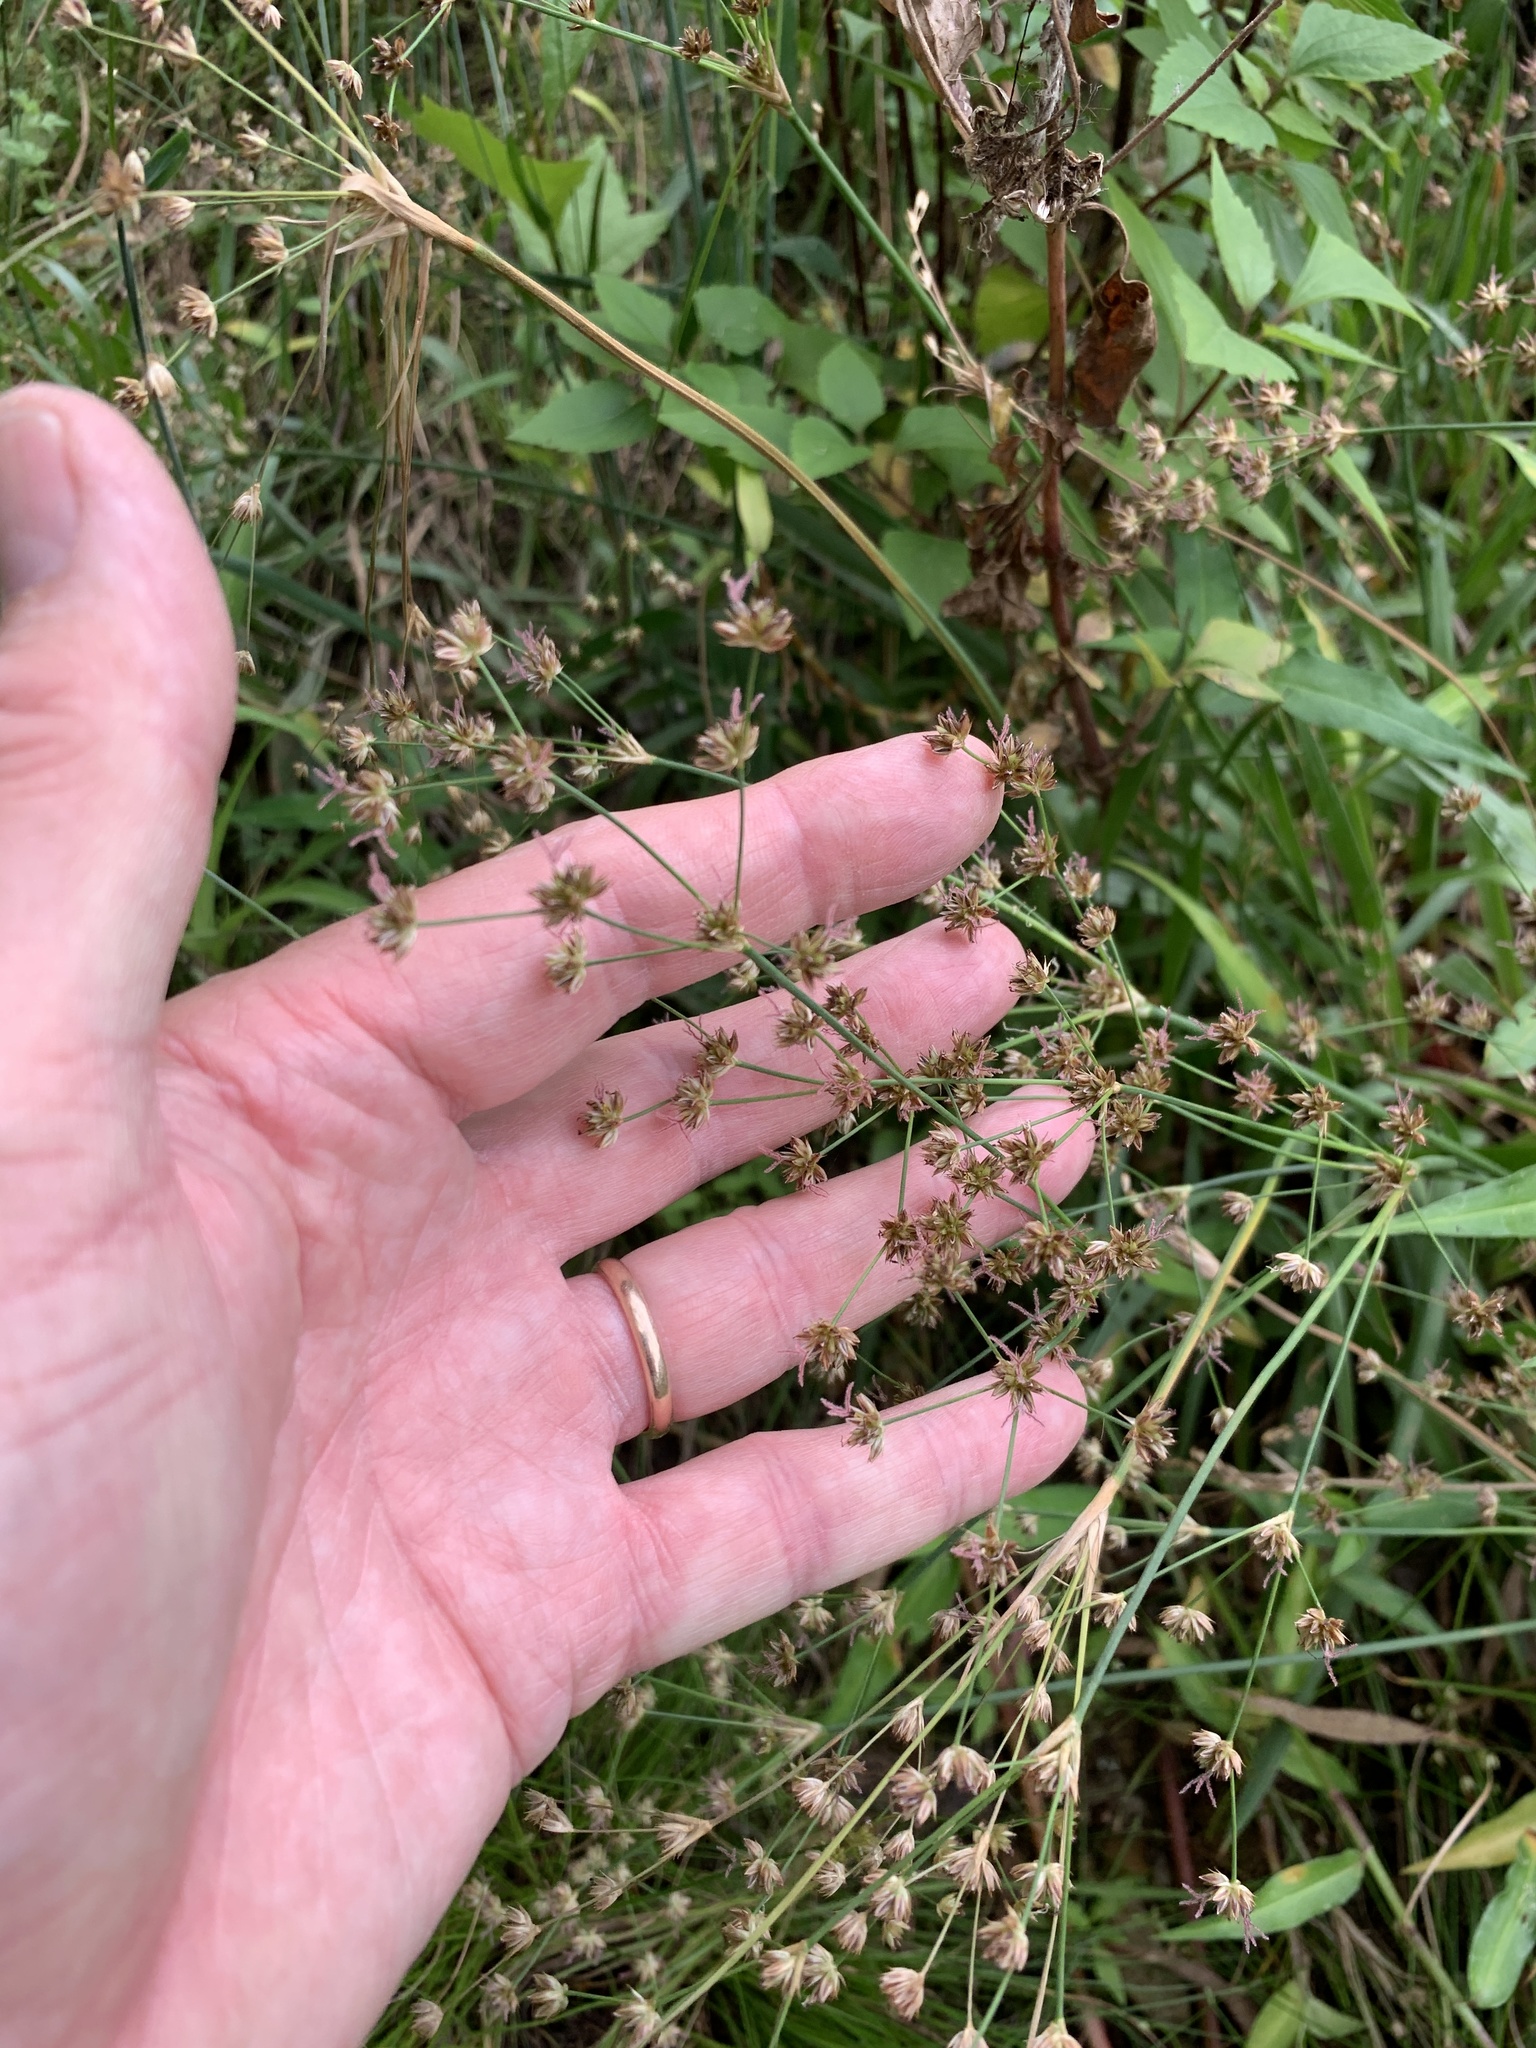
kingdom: Plantae
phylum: Tracheophyta
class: Liliopsida
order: Poales
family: Juncaceae
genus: Juncus
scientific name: Juncus lomatophyllus
